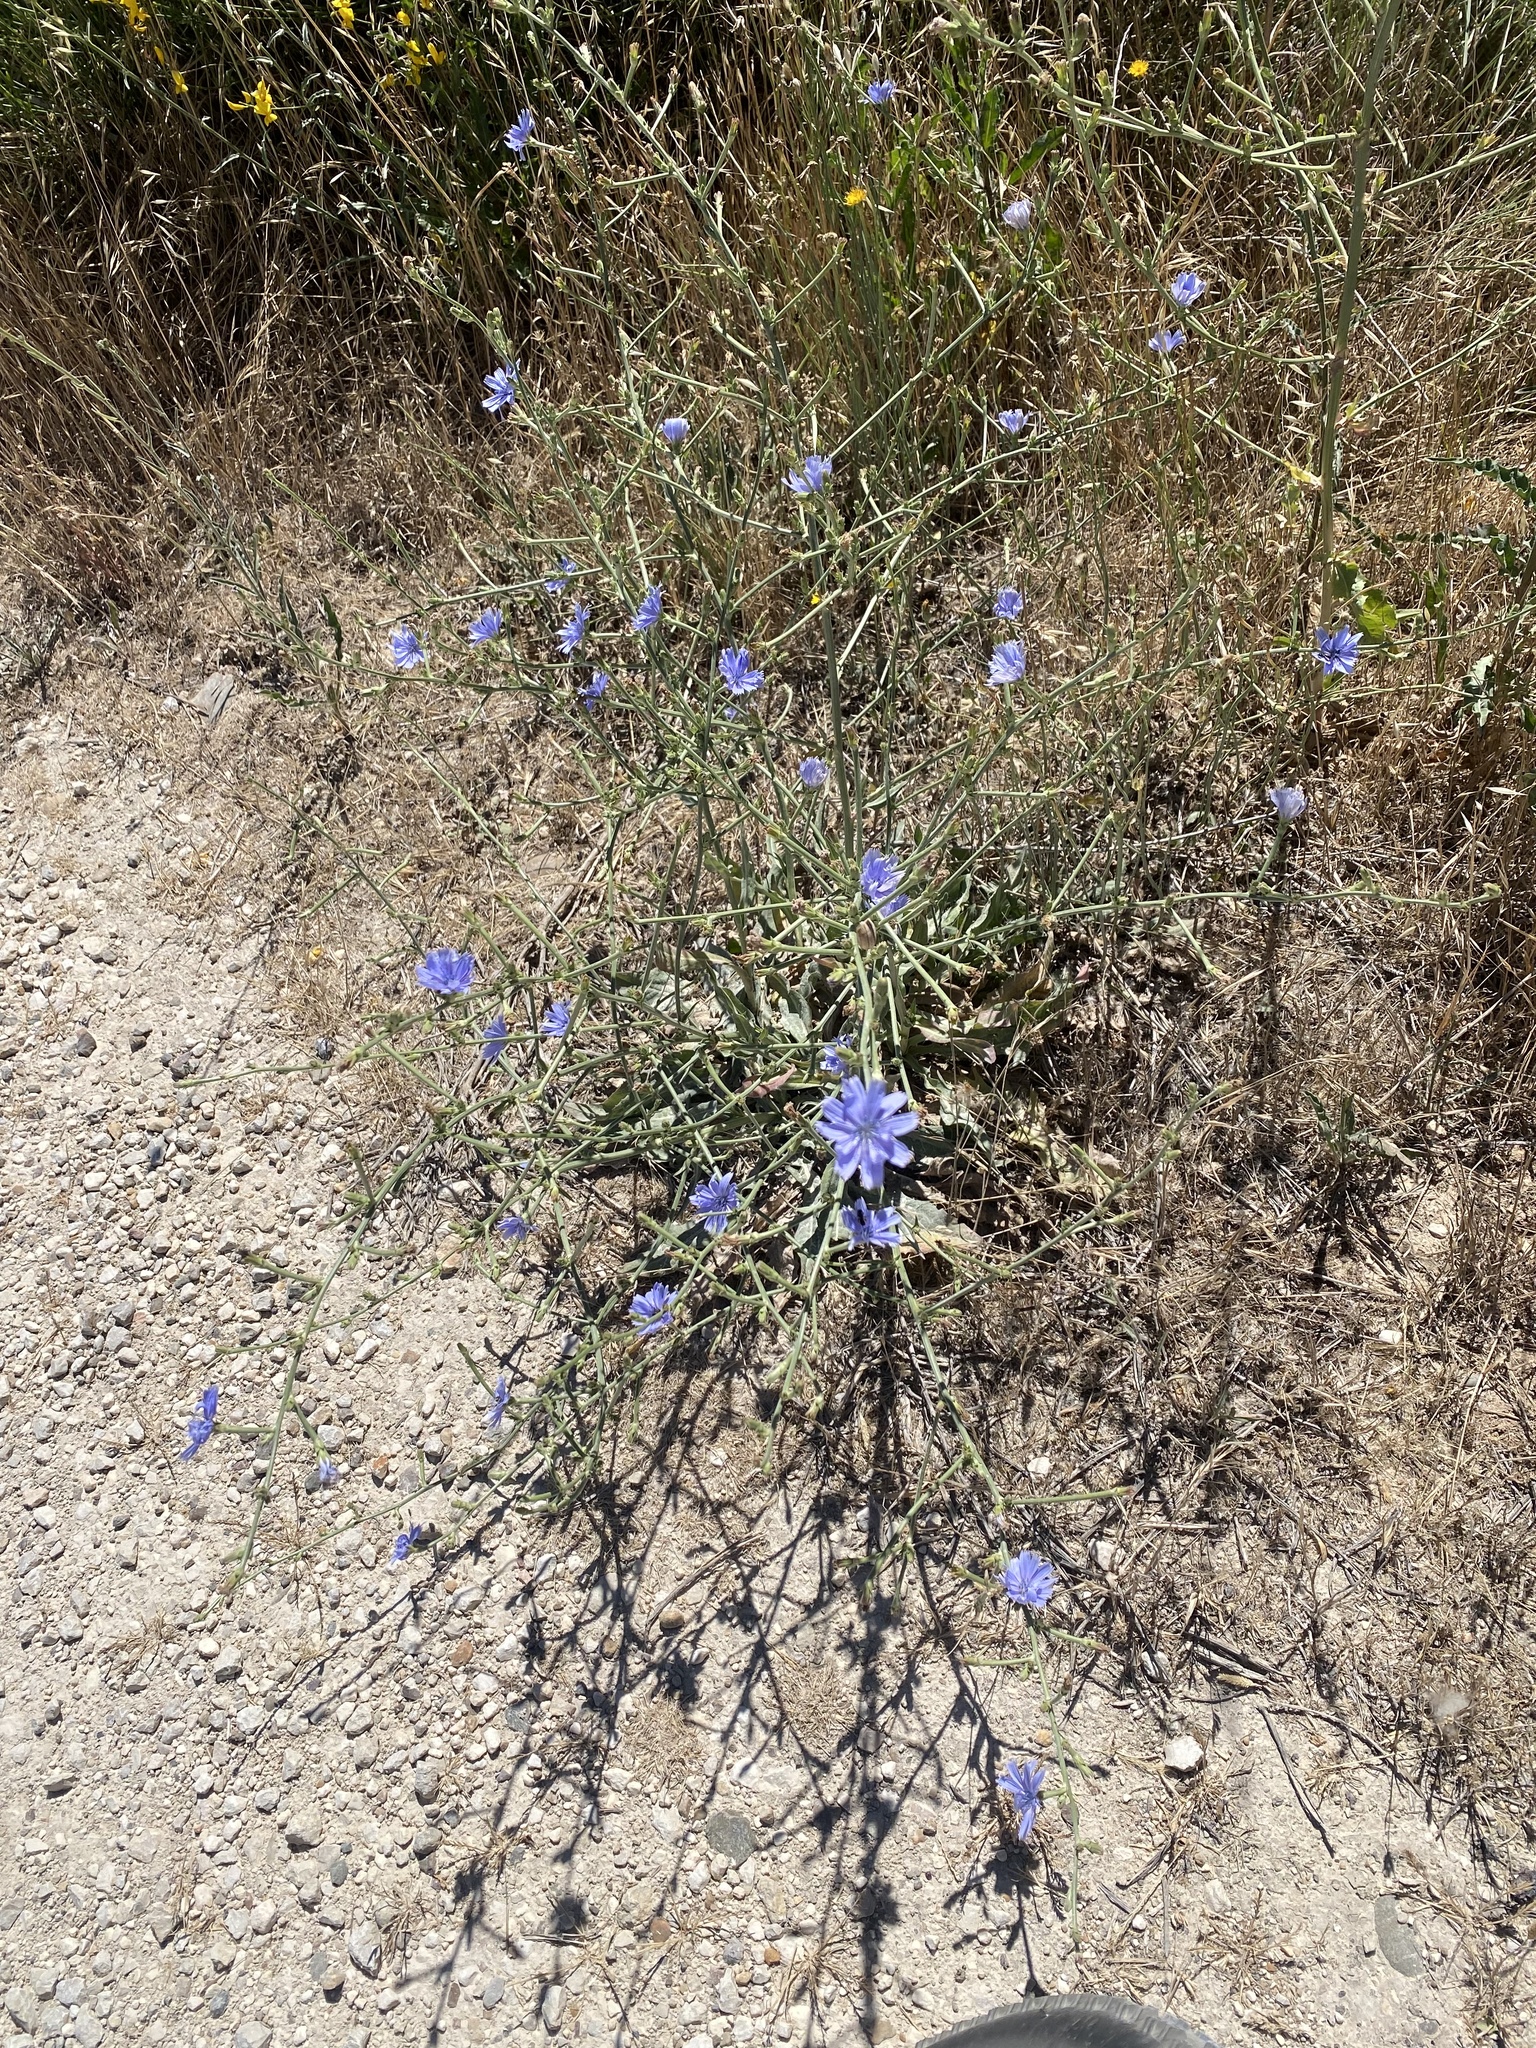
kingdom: Plantae
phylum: Tracheophyta
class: Magnoliopsida
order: Asterales
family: Asteraceae
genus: Cichorium
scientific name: Cichorium intybus
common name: Chicory
